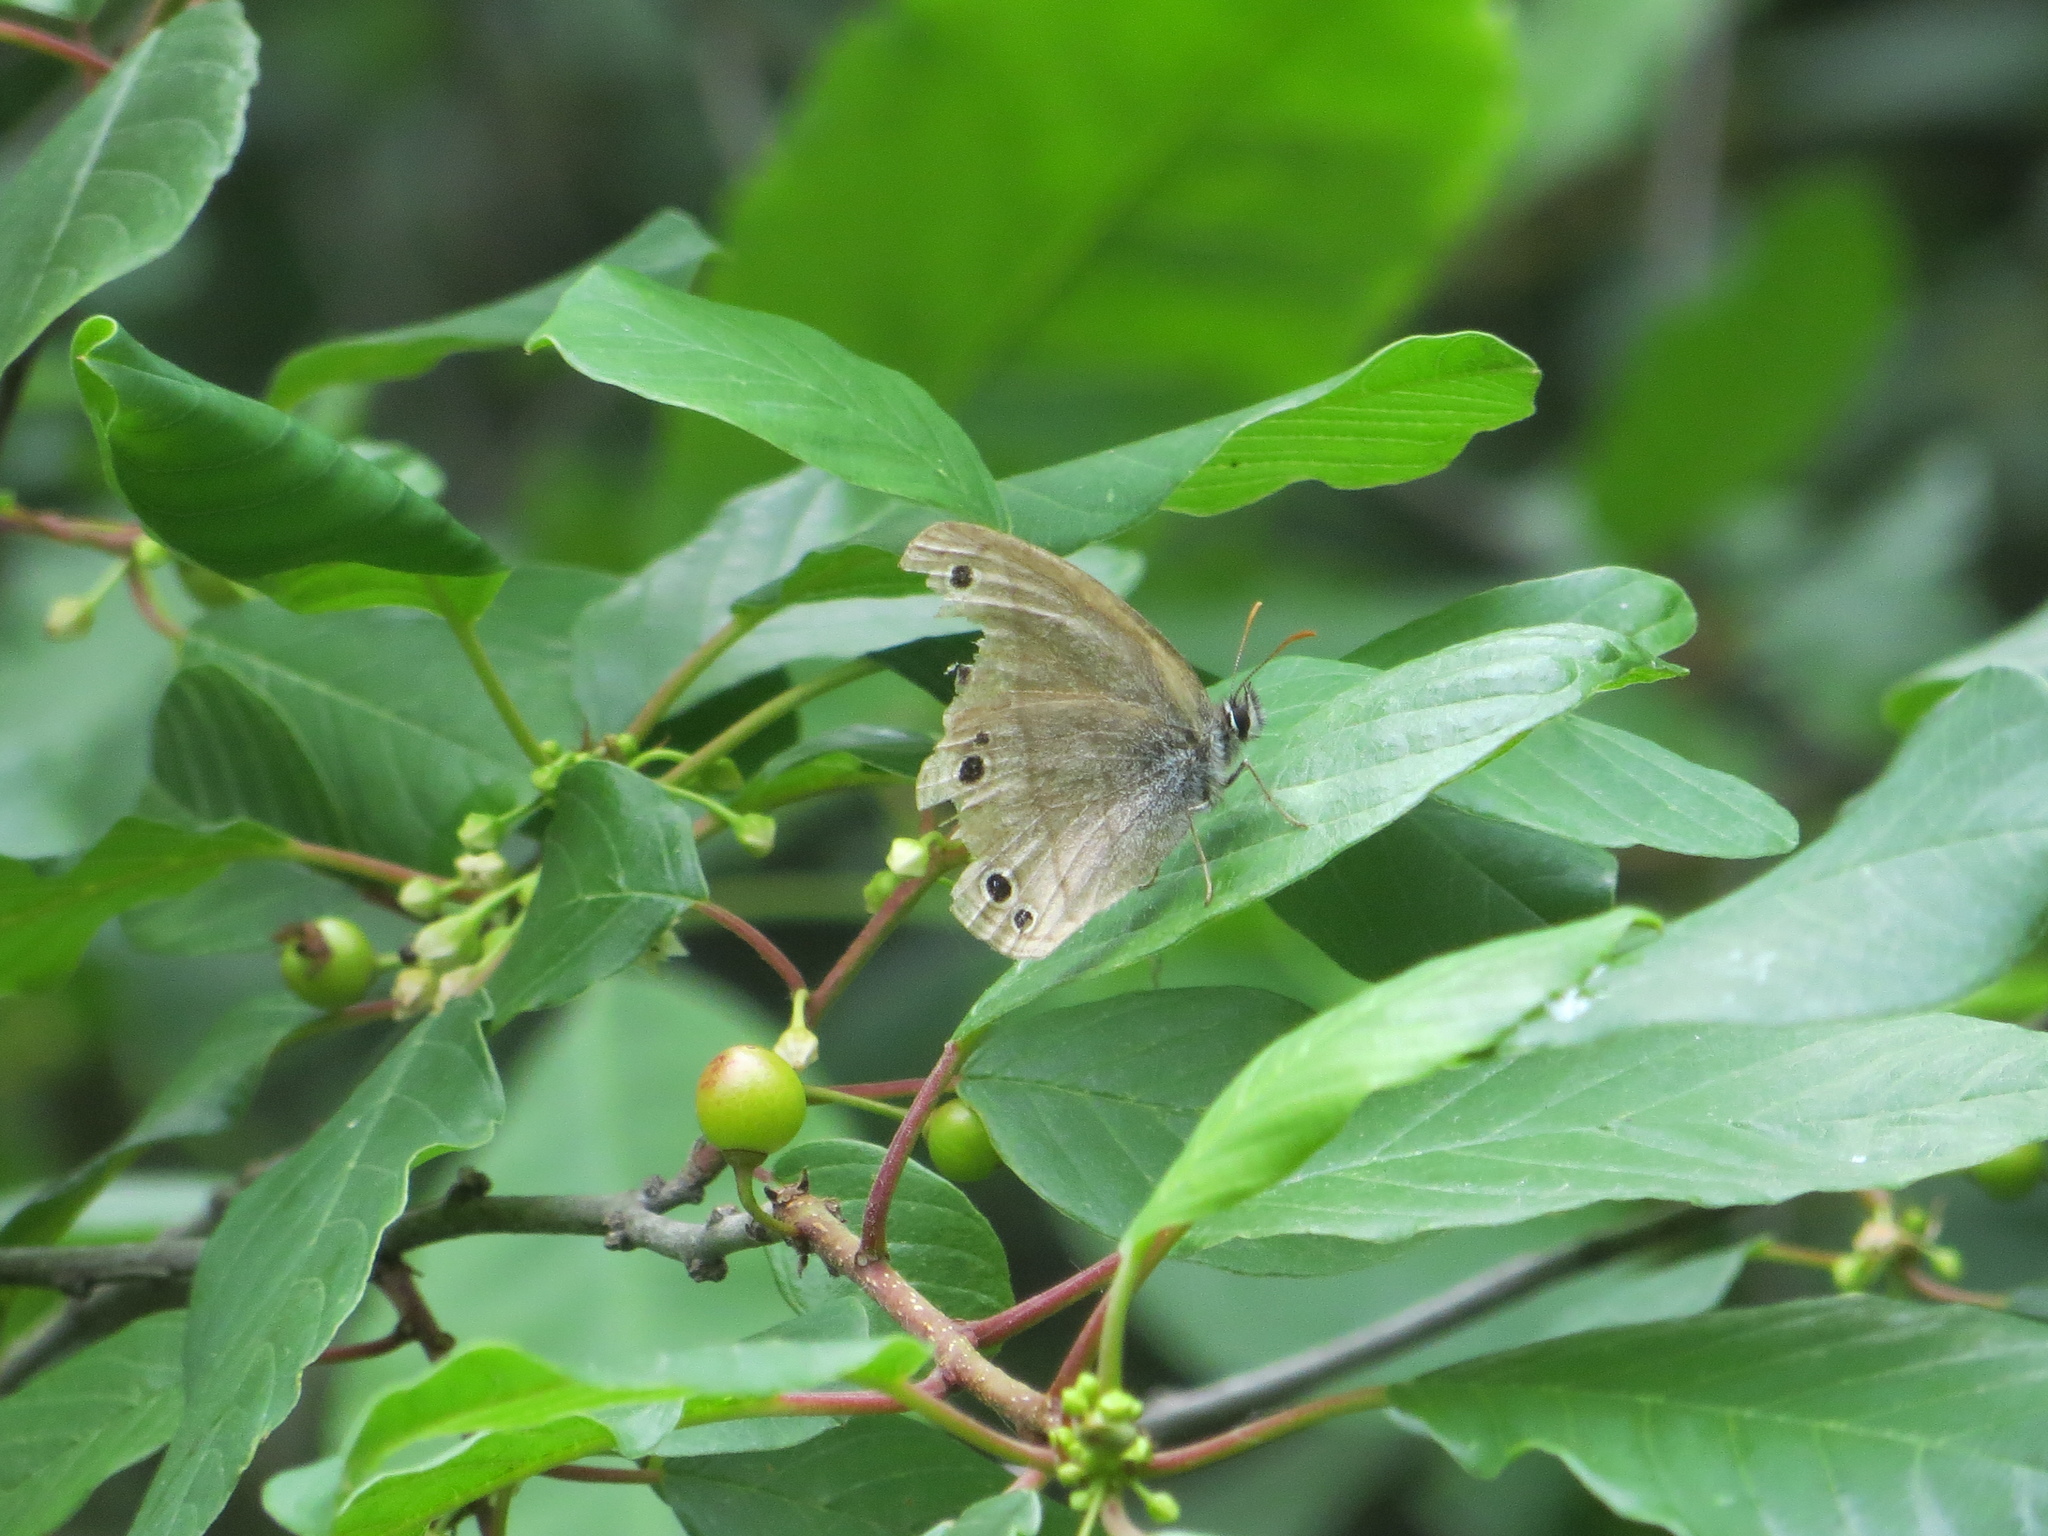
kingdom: Animalia
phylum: Arthropoda
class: Insecta
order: Lepidoptera
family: Nymphalidae
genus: Euptychia
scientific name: Euptychia cymela
